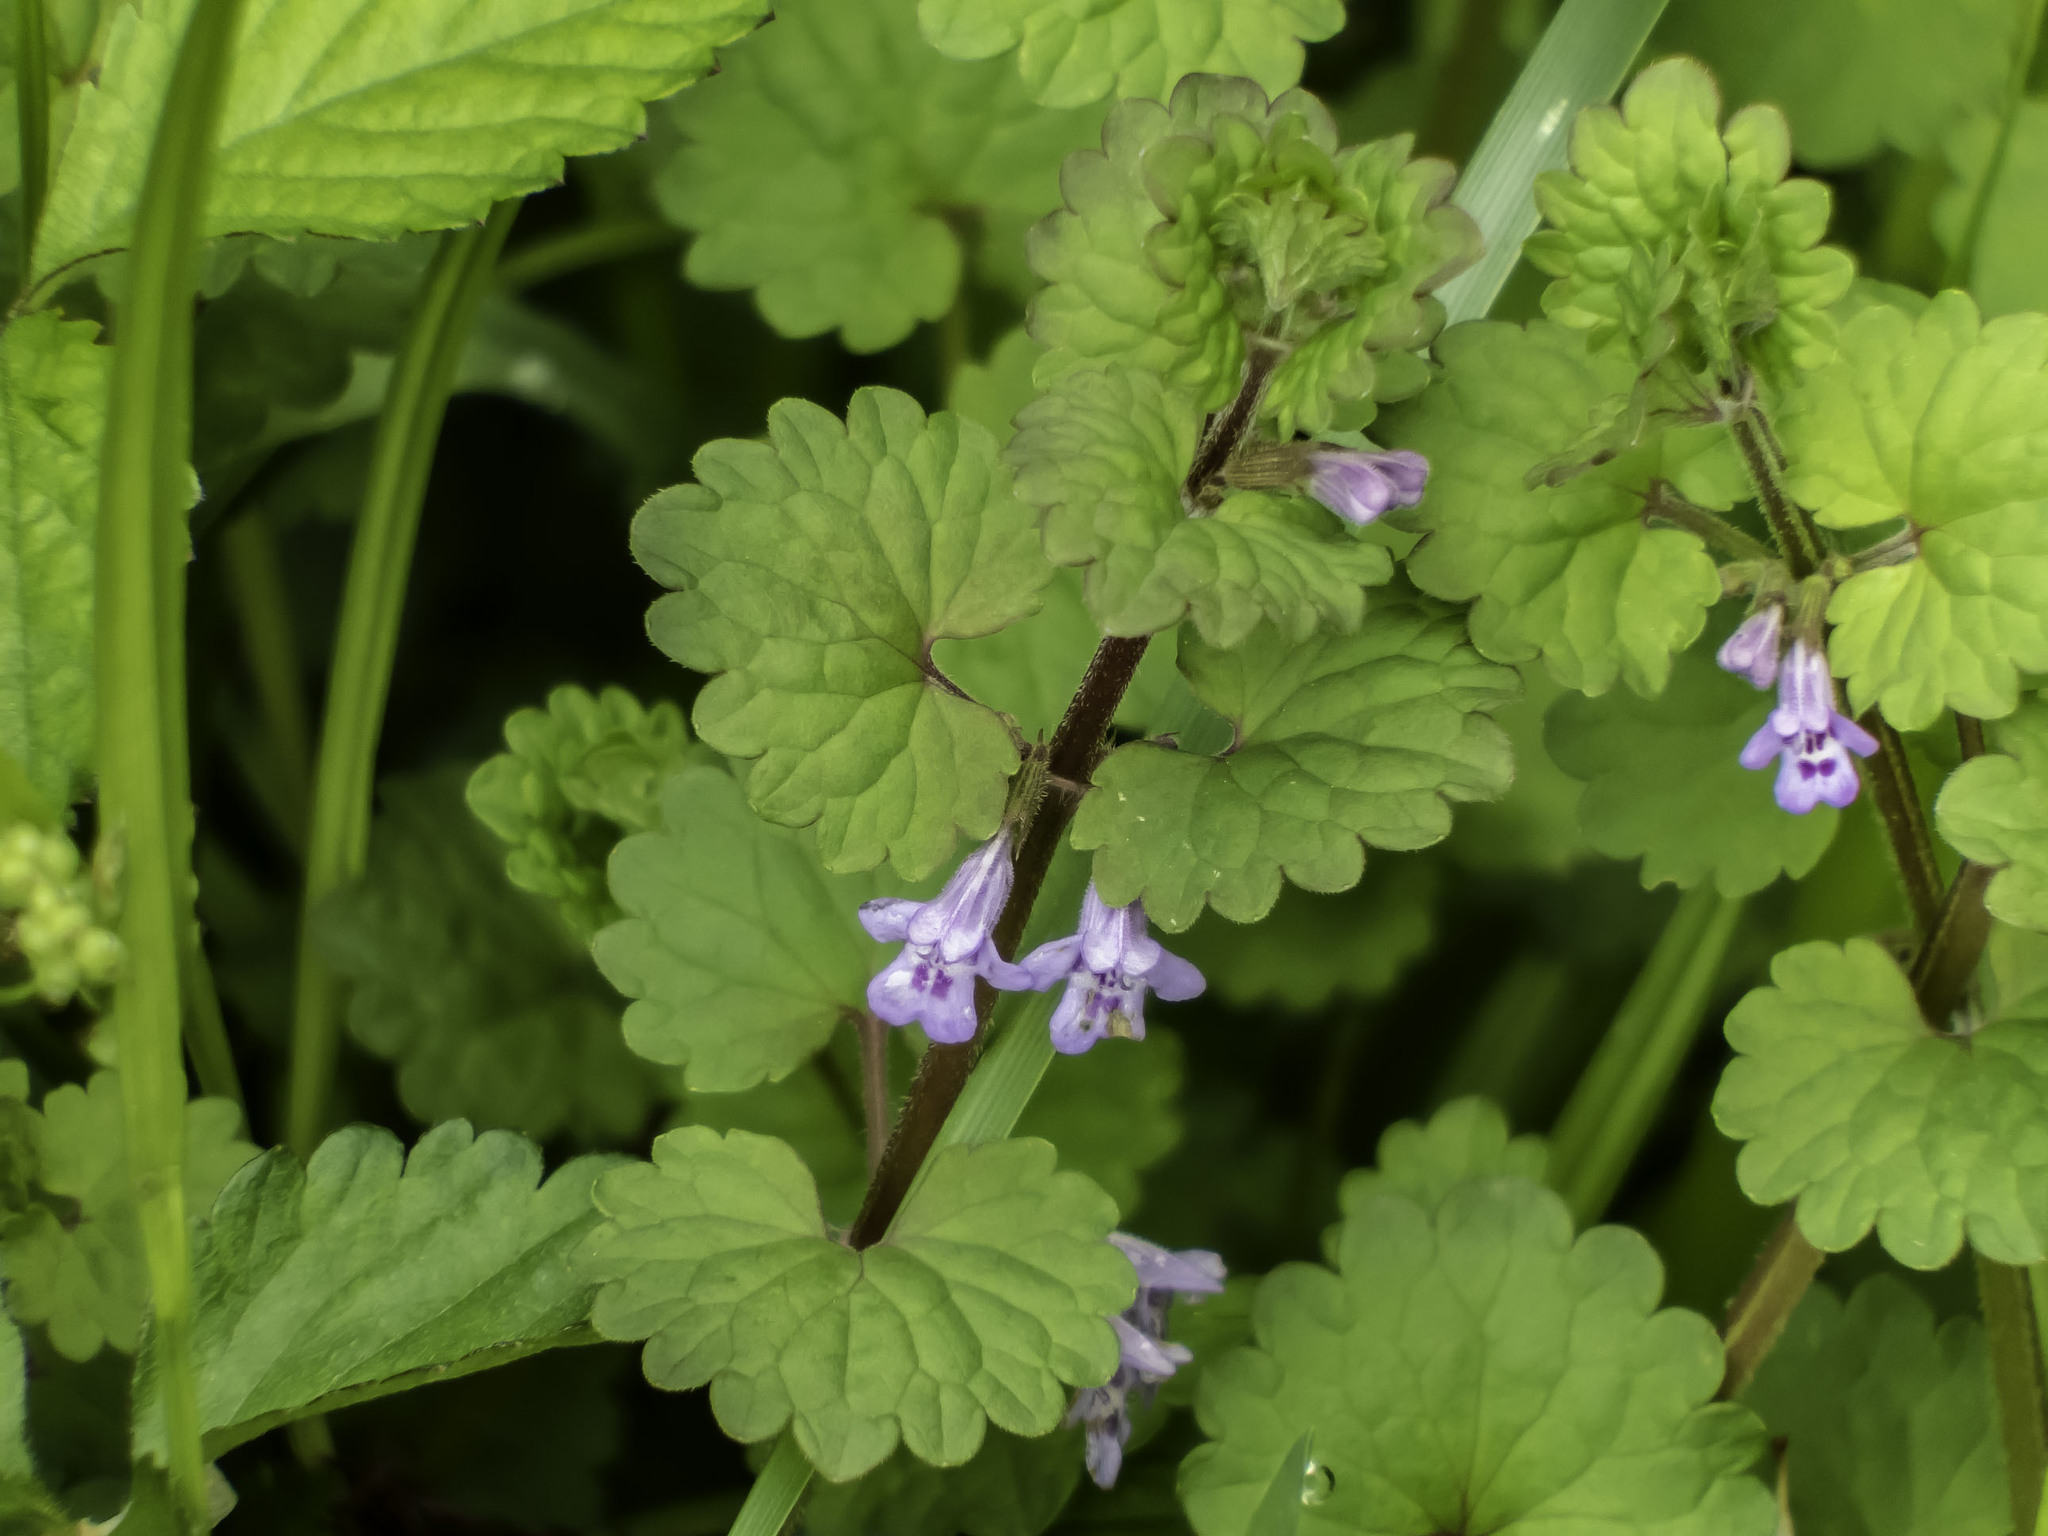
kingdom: Plantae
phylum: Tracheophyta
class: Magnoliopsida
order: Lamiales
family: Lamiaceae
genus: Glechoma
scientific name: Glechoma hederacea
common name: Ground ivy
